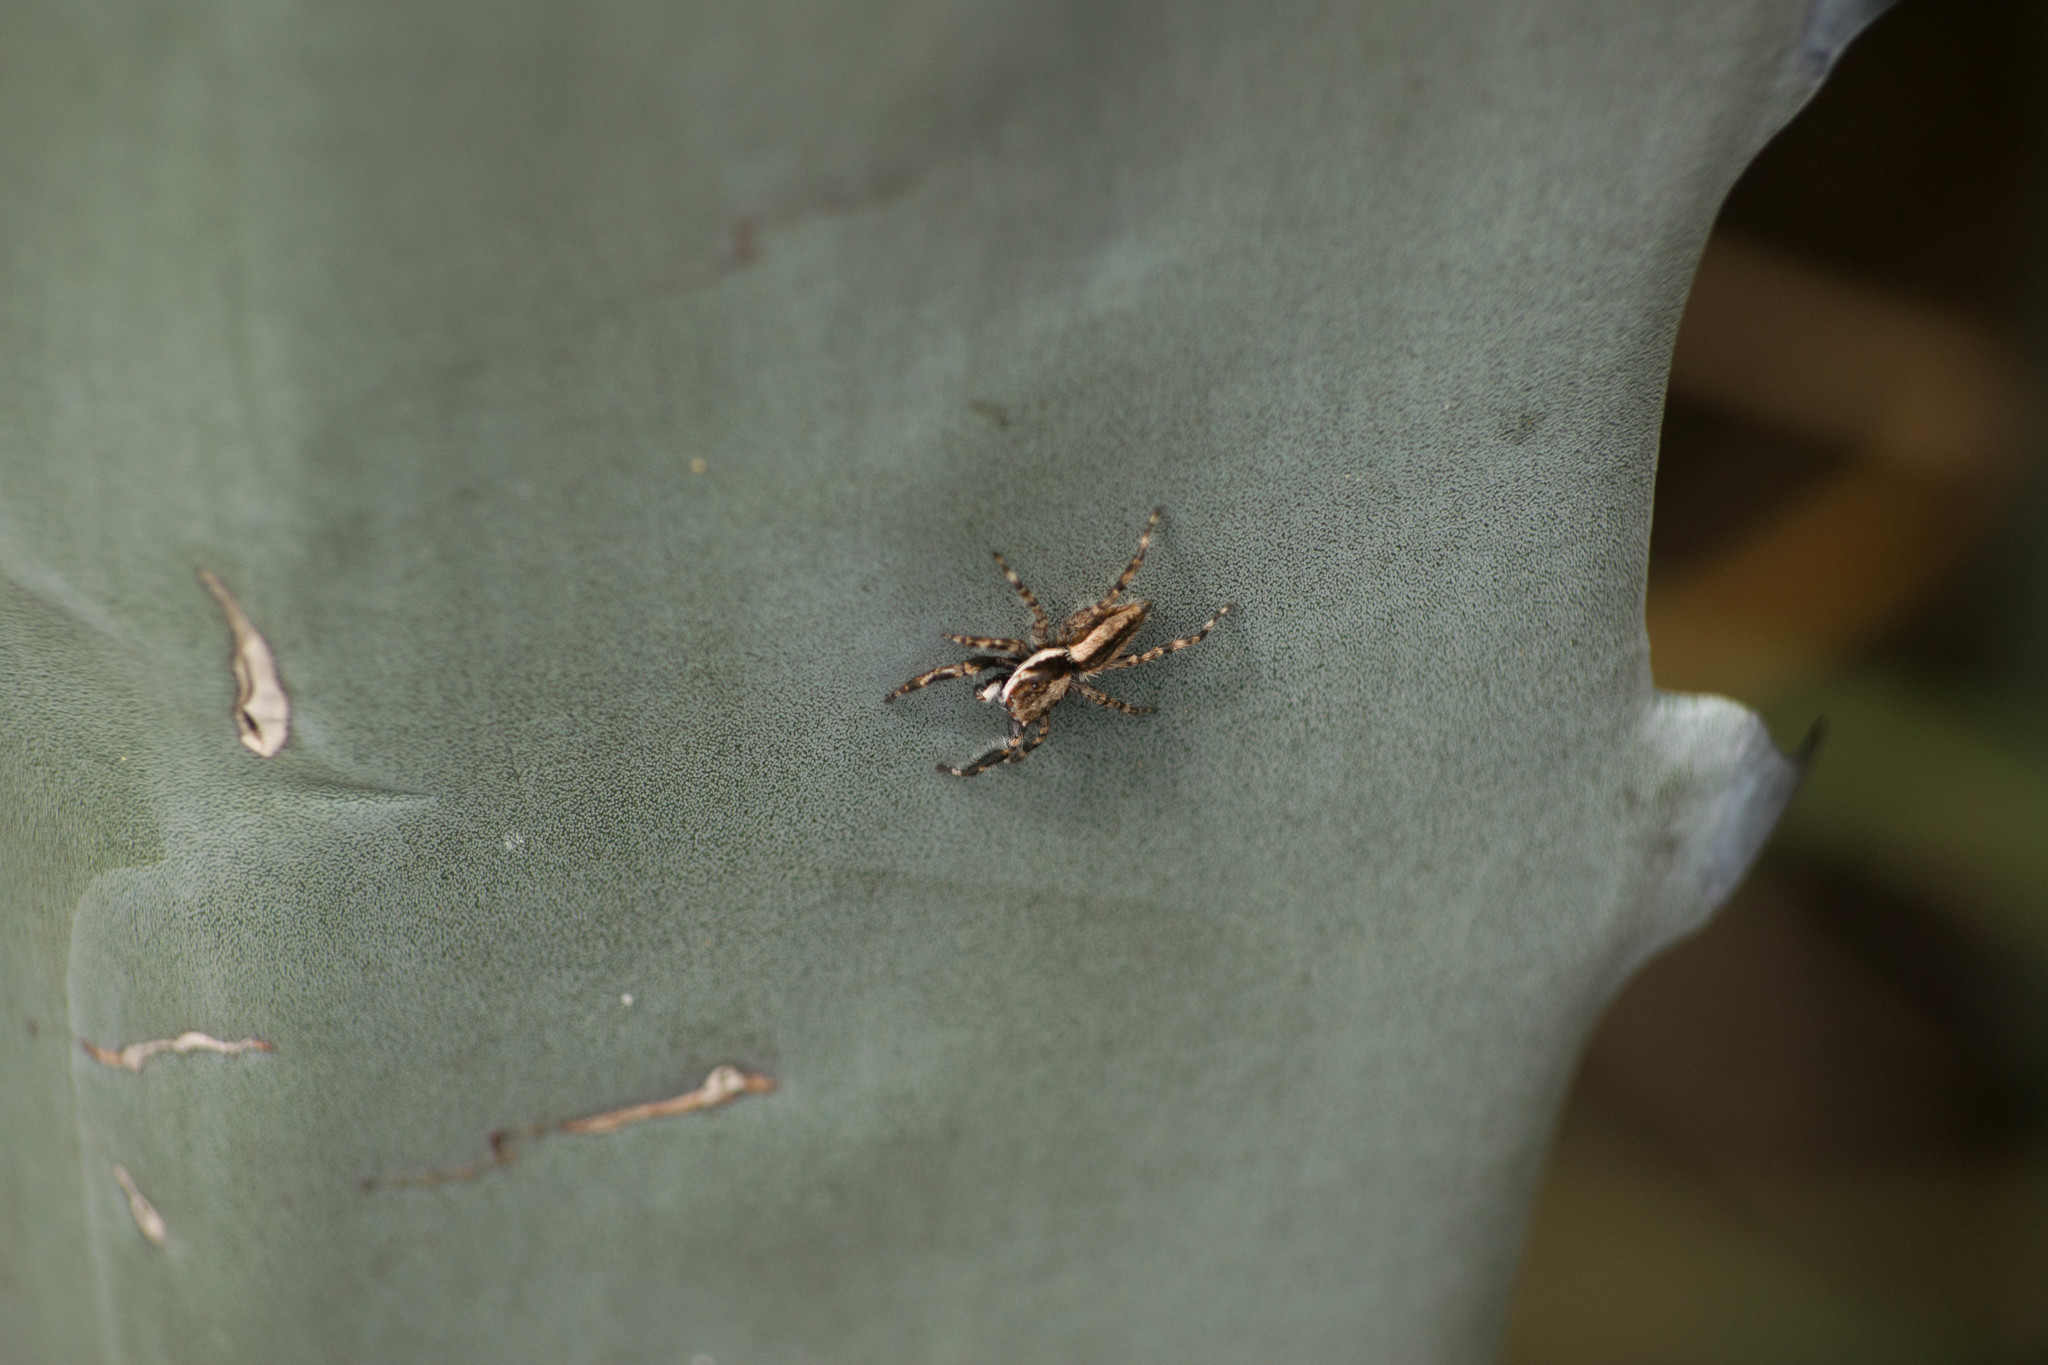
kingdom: Animalia
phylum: Arthropoda
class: Arachnida
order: Araneae
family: Salticidae
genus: Menemerus
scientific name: Menemerus bivittatus
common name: Gray wall jumper
